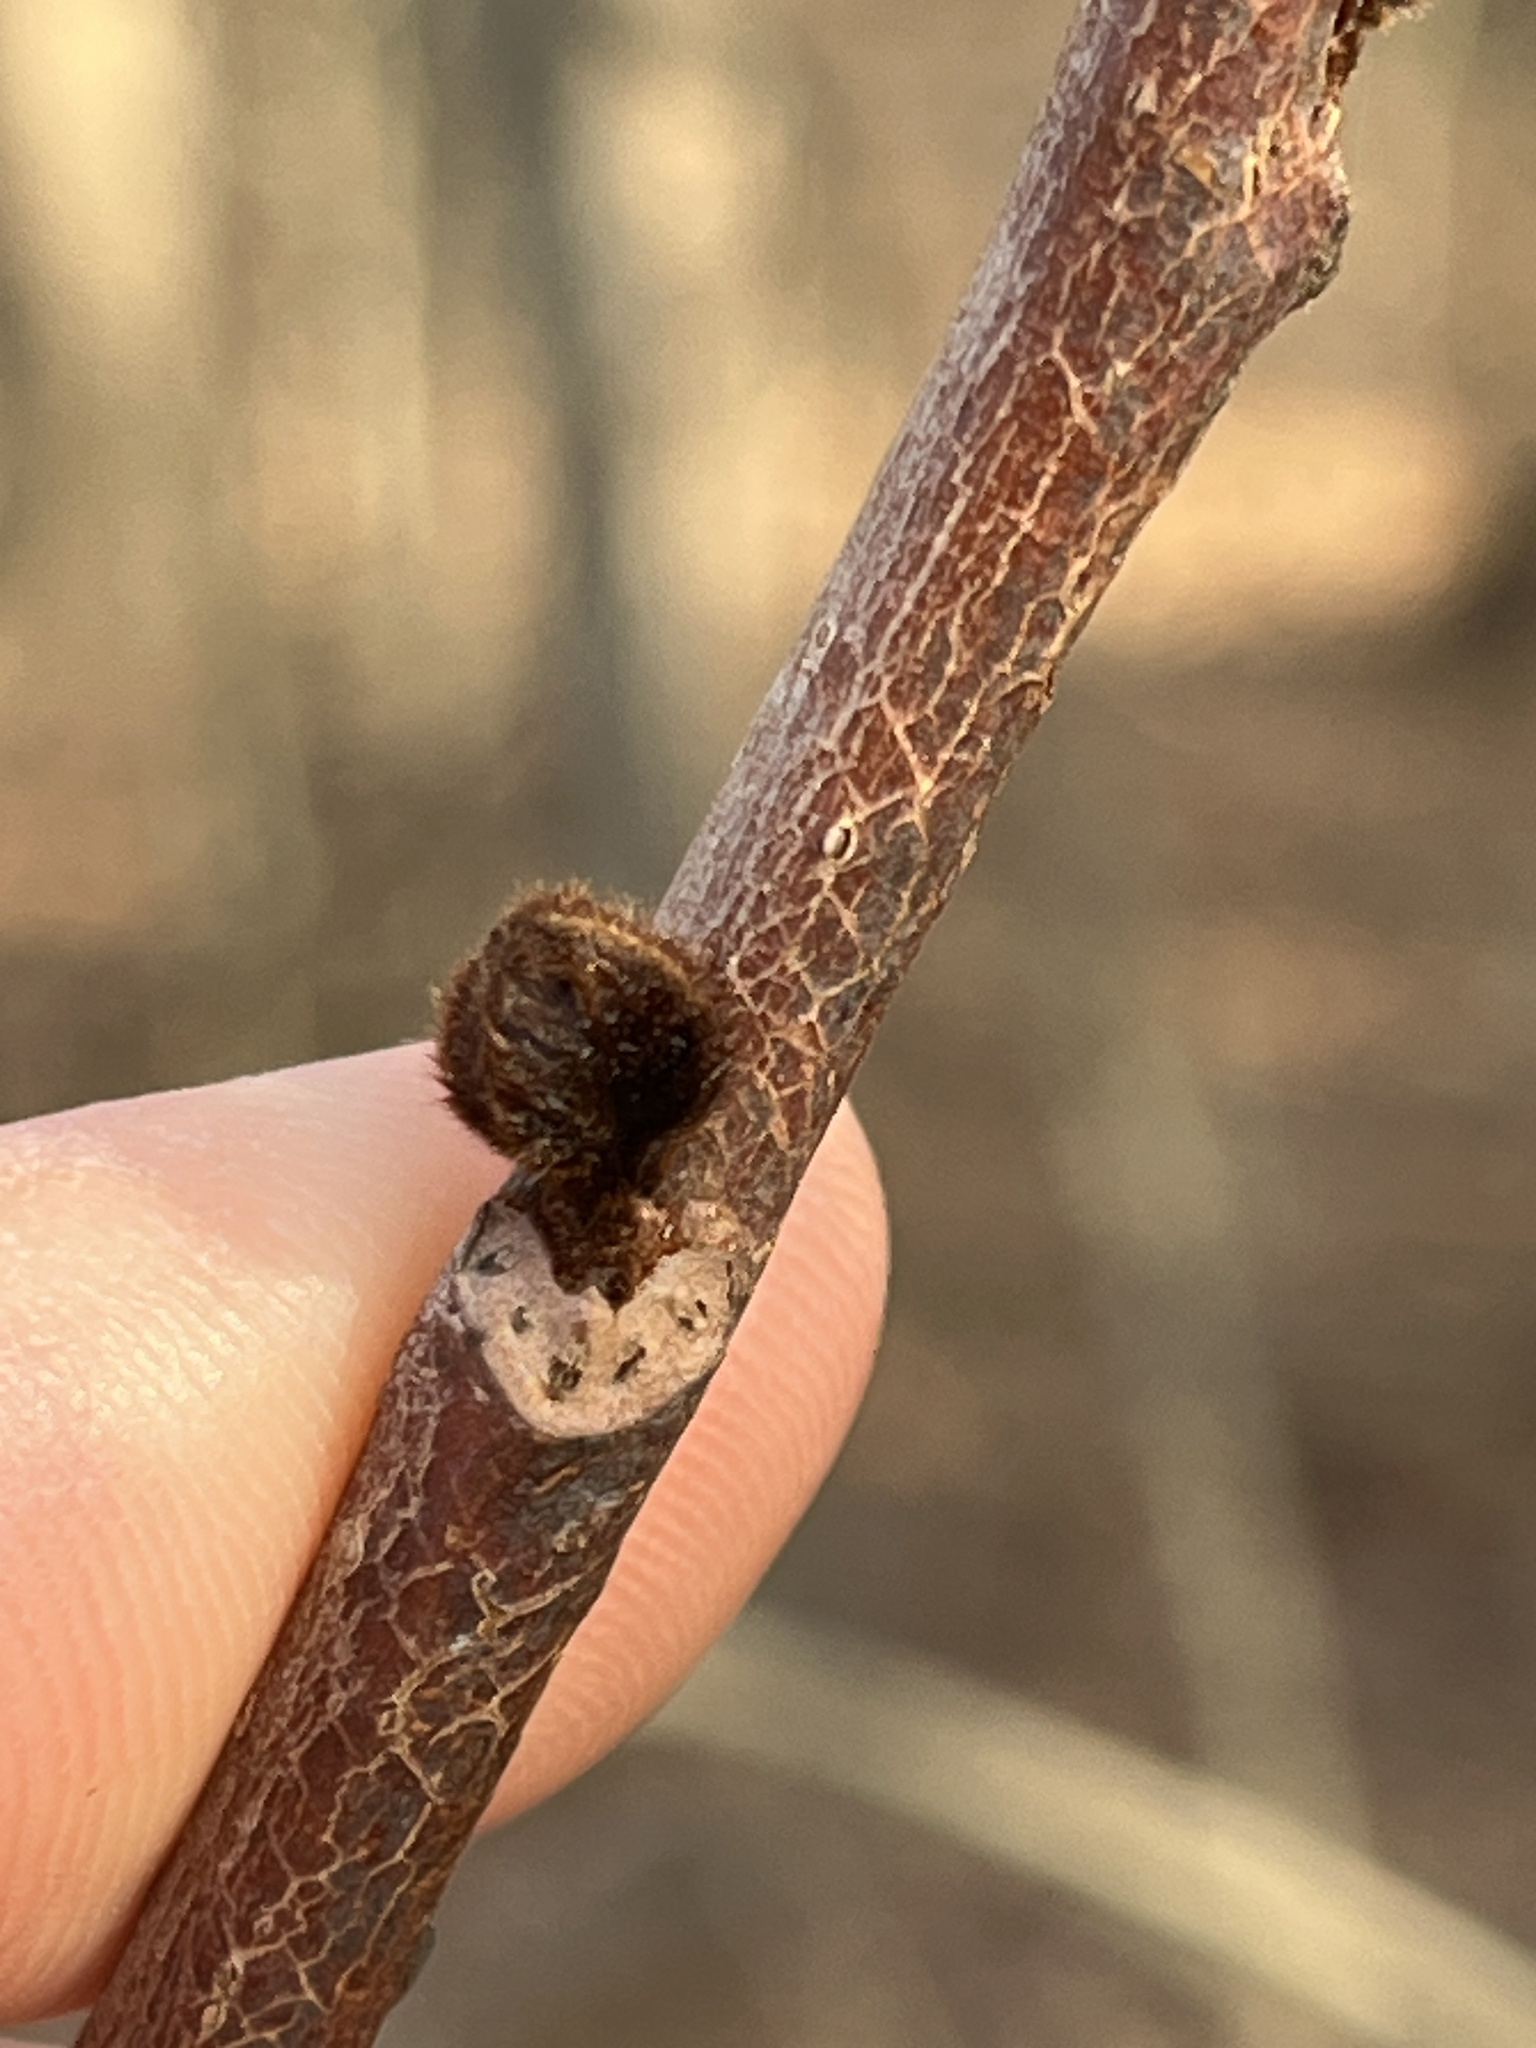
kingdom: Plantae
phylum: Tracheophyta
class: Magnoliopsida
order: Magnoliales
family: Annonaceae
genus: Asimina
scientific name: Asimina triloba
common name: Dog-banana
